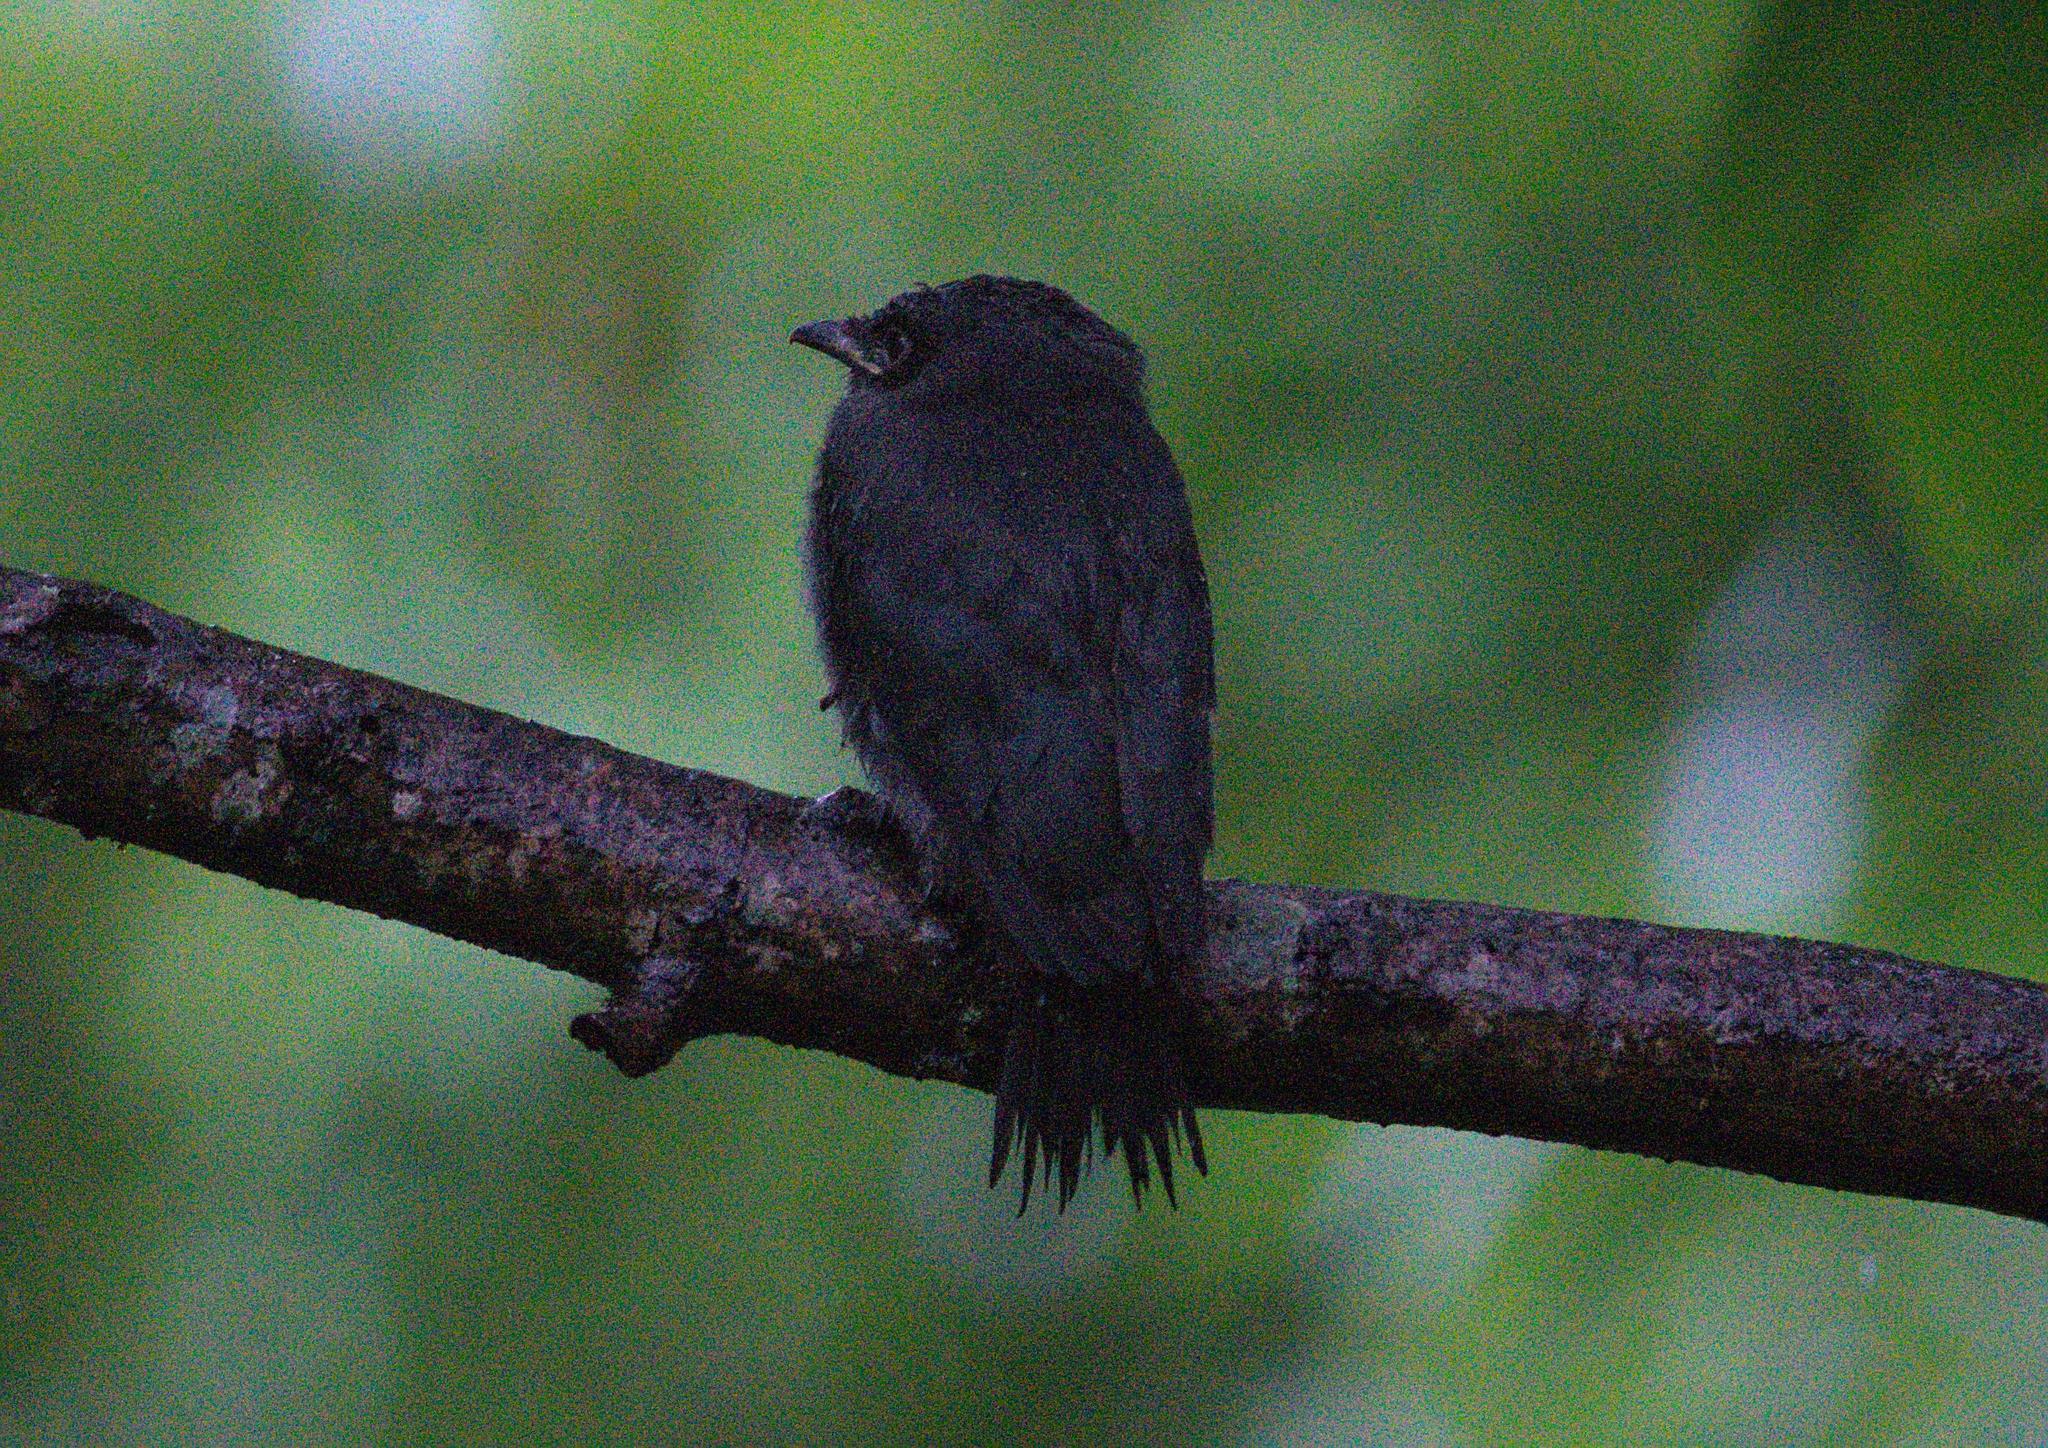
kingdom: Animalia
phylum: Chordata
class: Aves
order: Passeriformes
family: Dicruridae
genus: Dicrurus
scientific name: Dicrurus leucophaeus
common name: Ashy drongo
